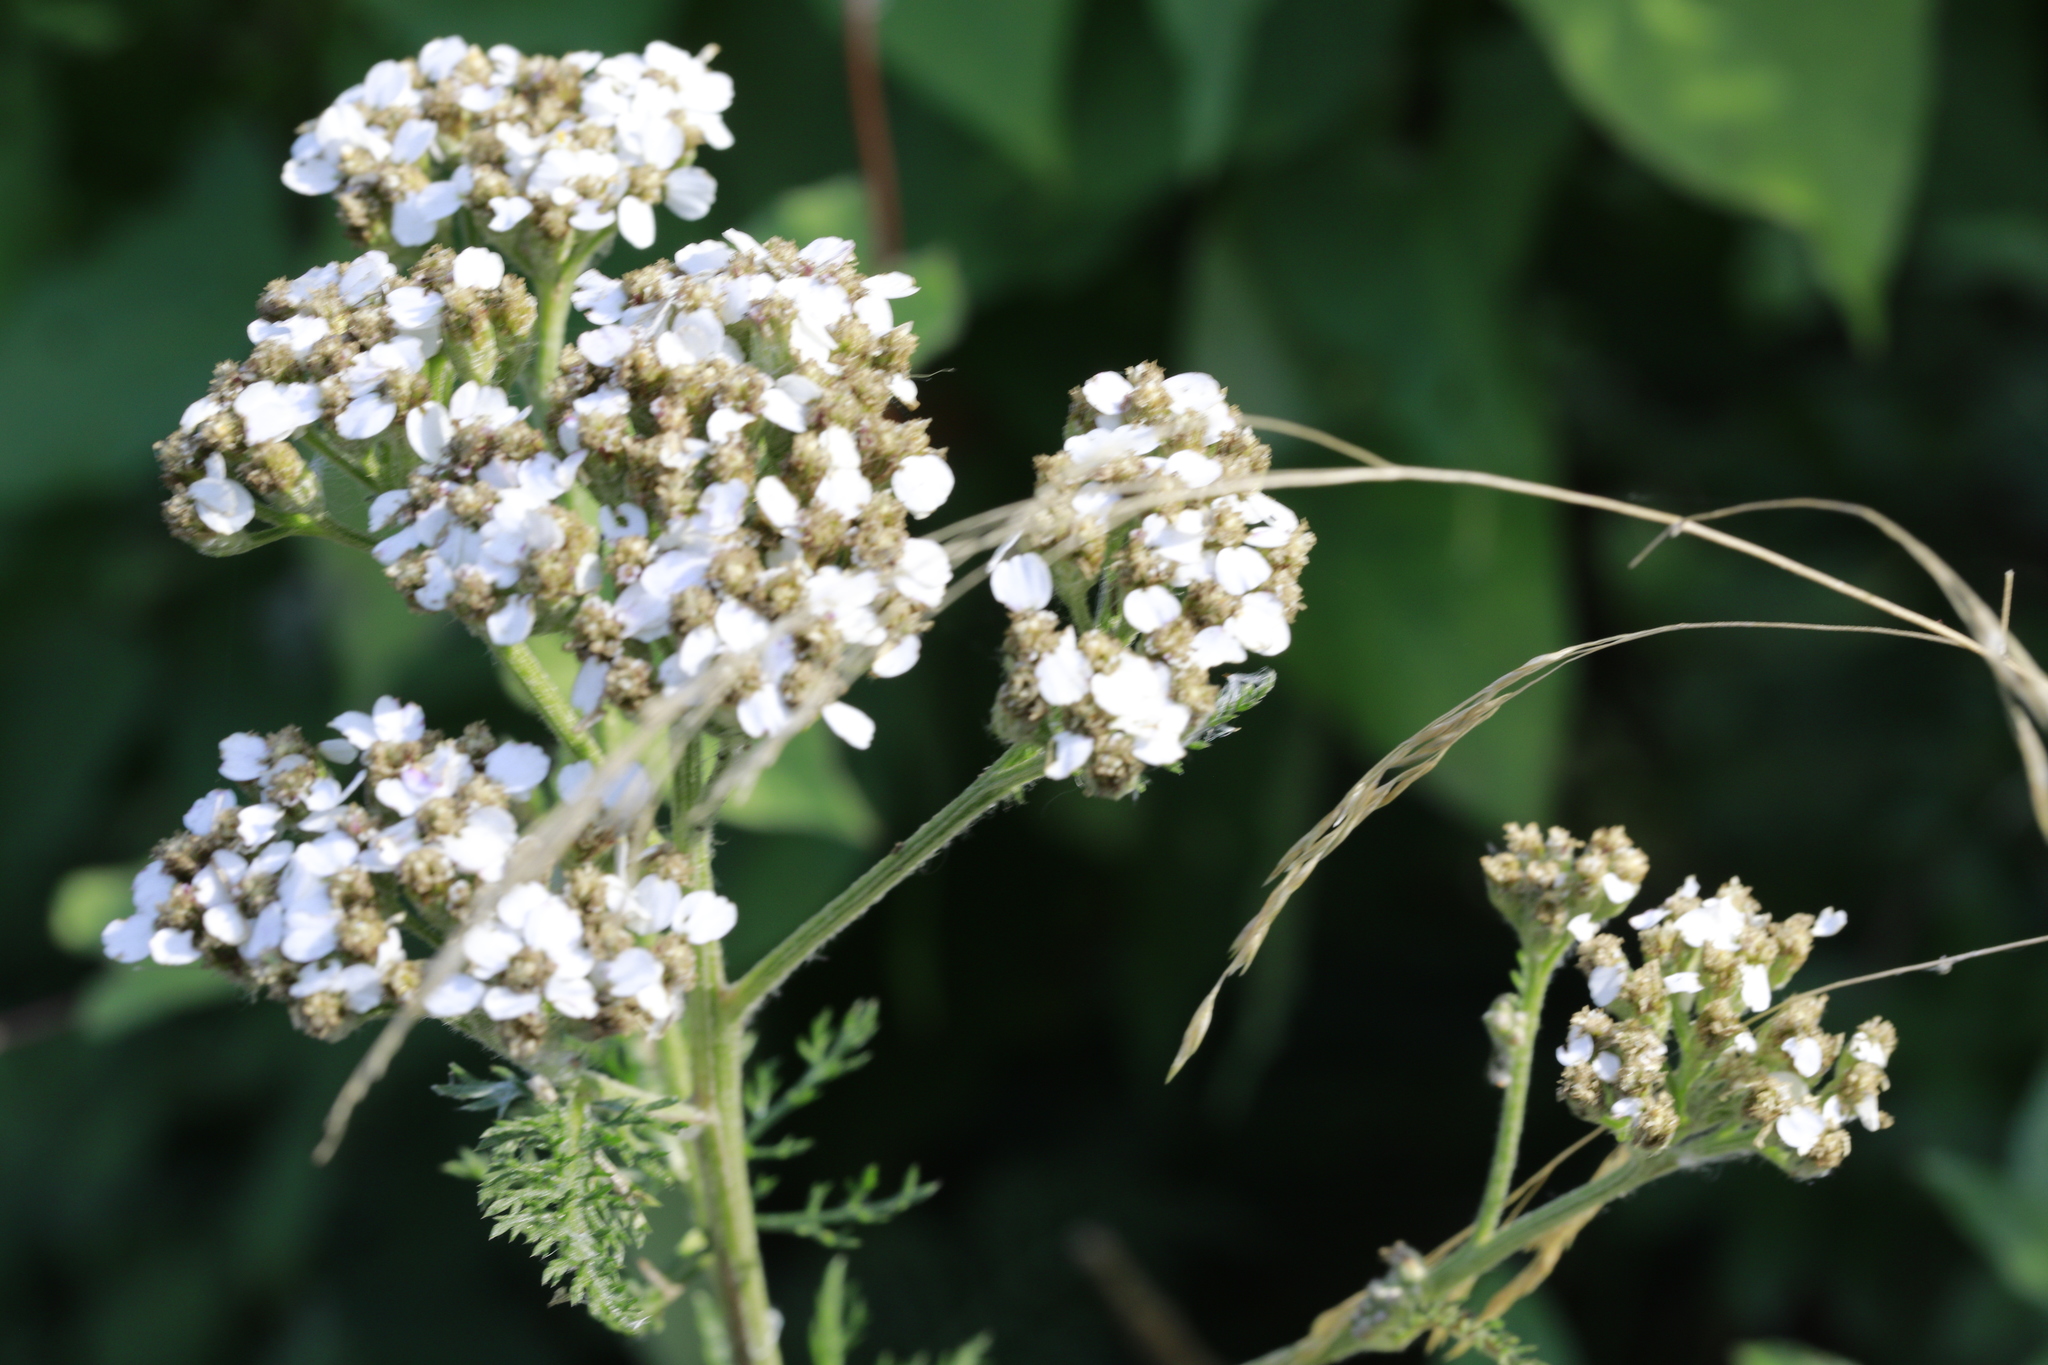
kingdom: Plantae
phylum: Tracheophyta
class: Magnoliopsida
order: Asterales
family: Asteraceae
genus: Achillea
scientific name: Achillea millefolium
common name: Yarrow
